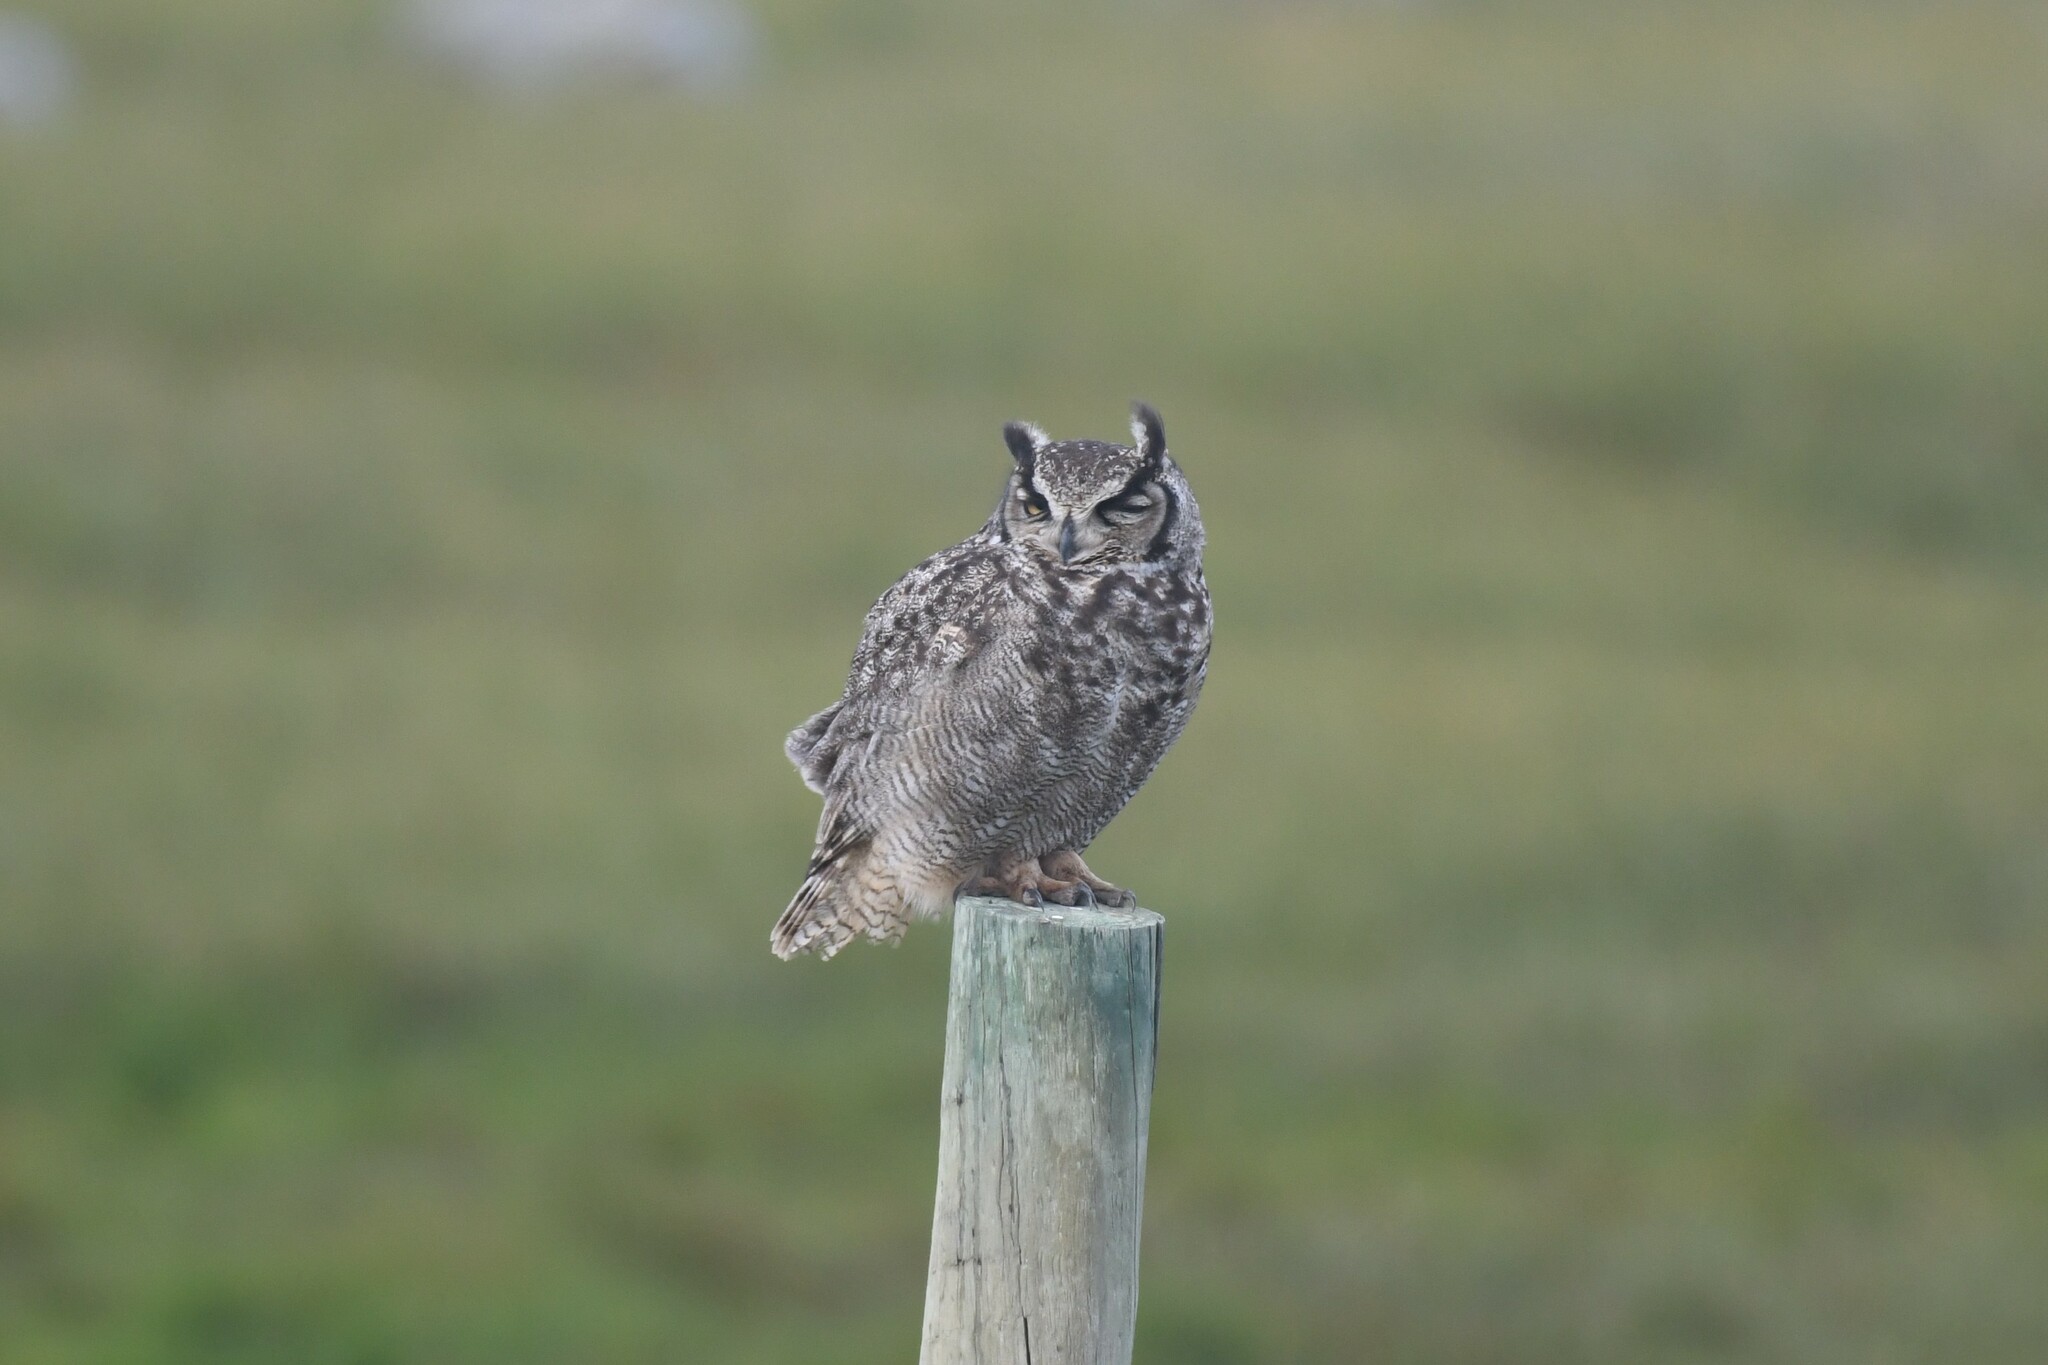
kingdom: Animalia
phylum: Chordata
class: Aves
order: Strigiformes
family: Strigidae
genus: Bubo
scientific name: Bubo magellanicus
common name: Lesser horned owl
